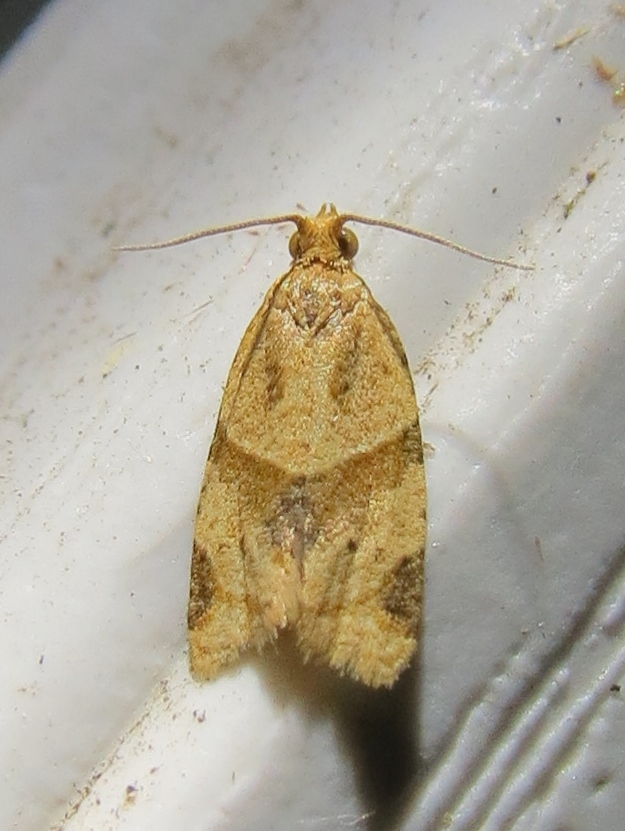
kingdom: Animalia
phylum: Arthropoda
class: Insecta
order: Lepidoptera
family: Tortricidae
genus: Clepsis
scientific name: Clepsis peritana
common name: Garden tortrix
